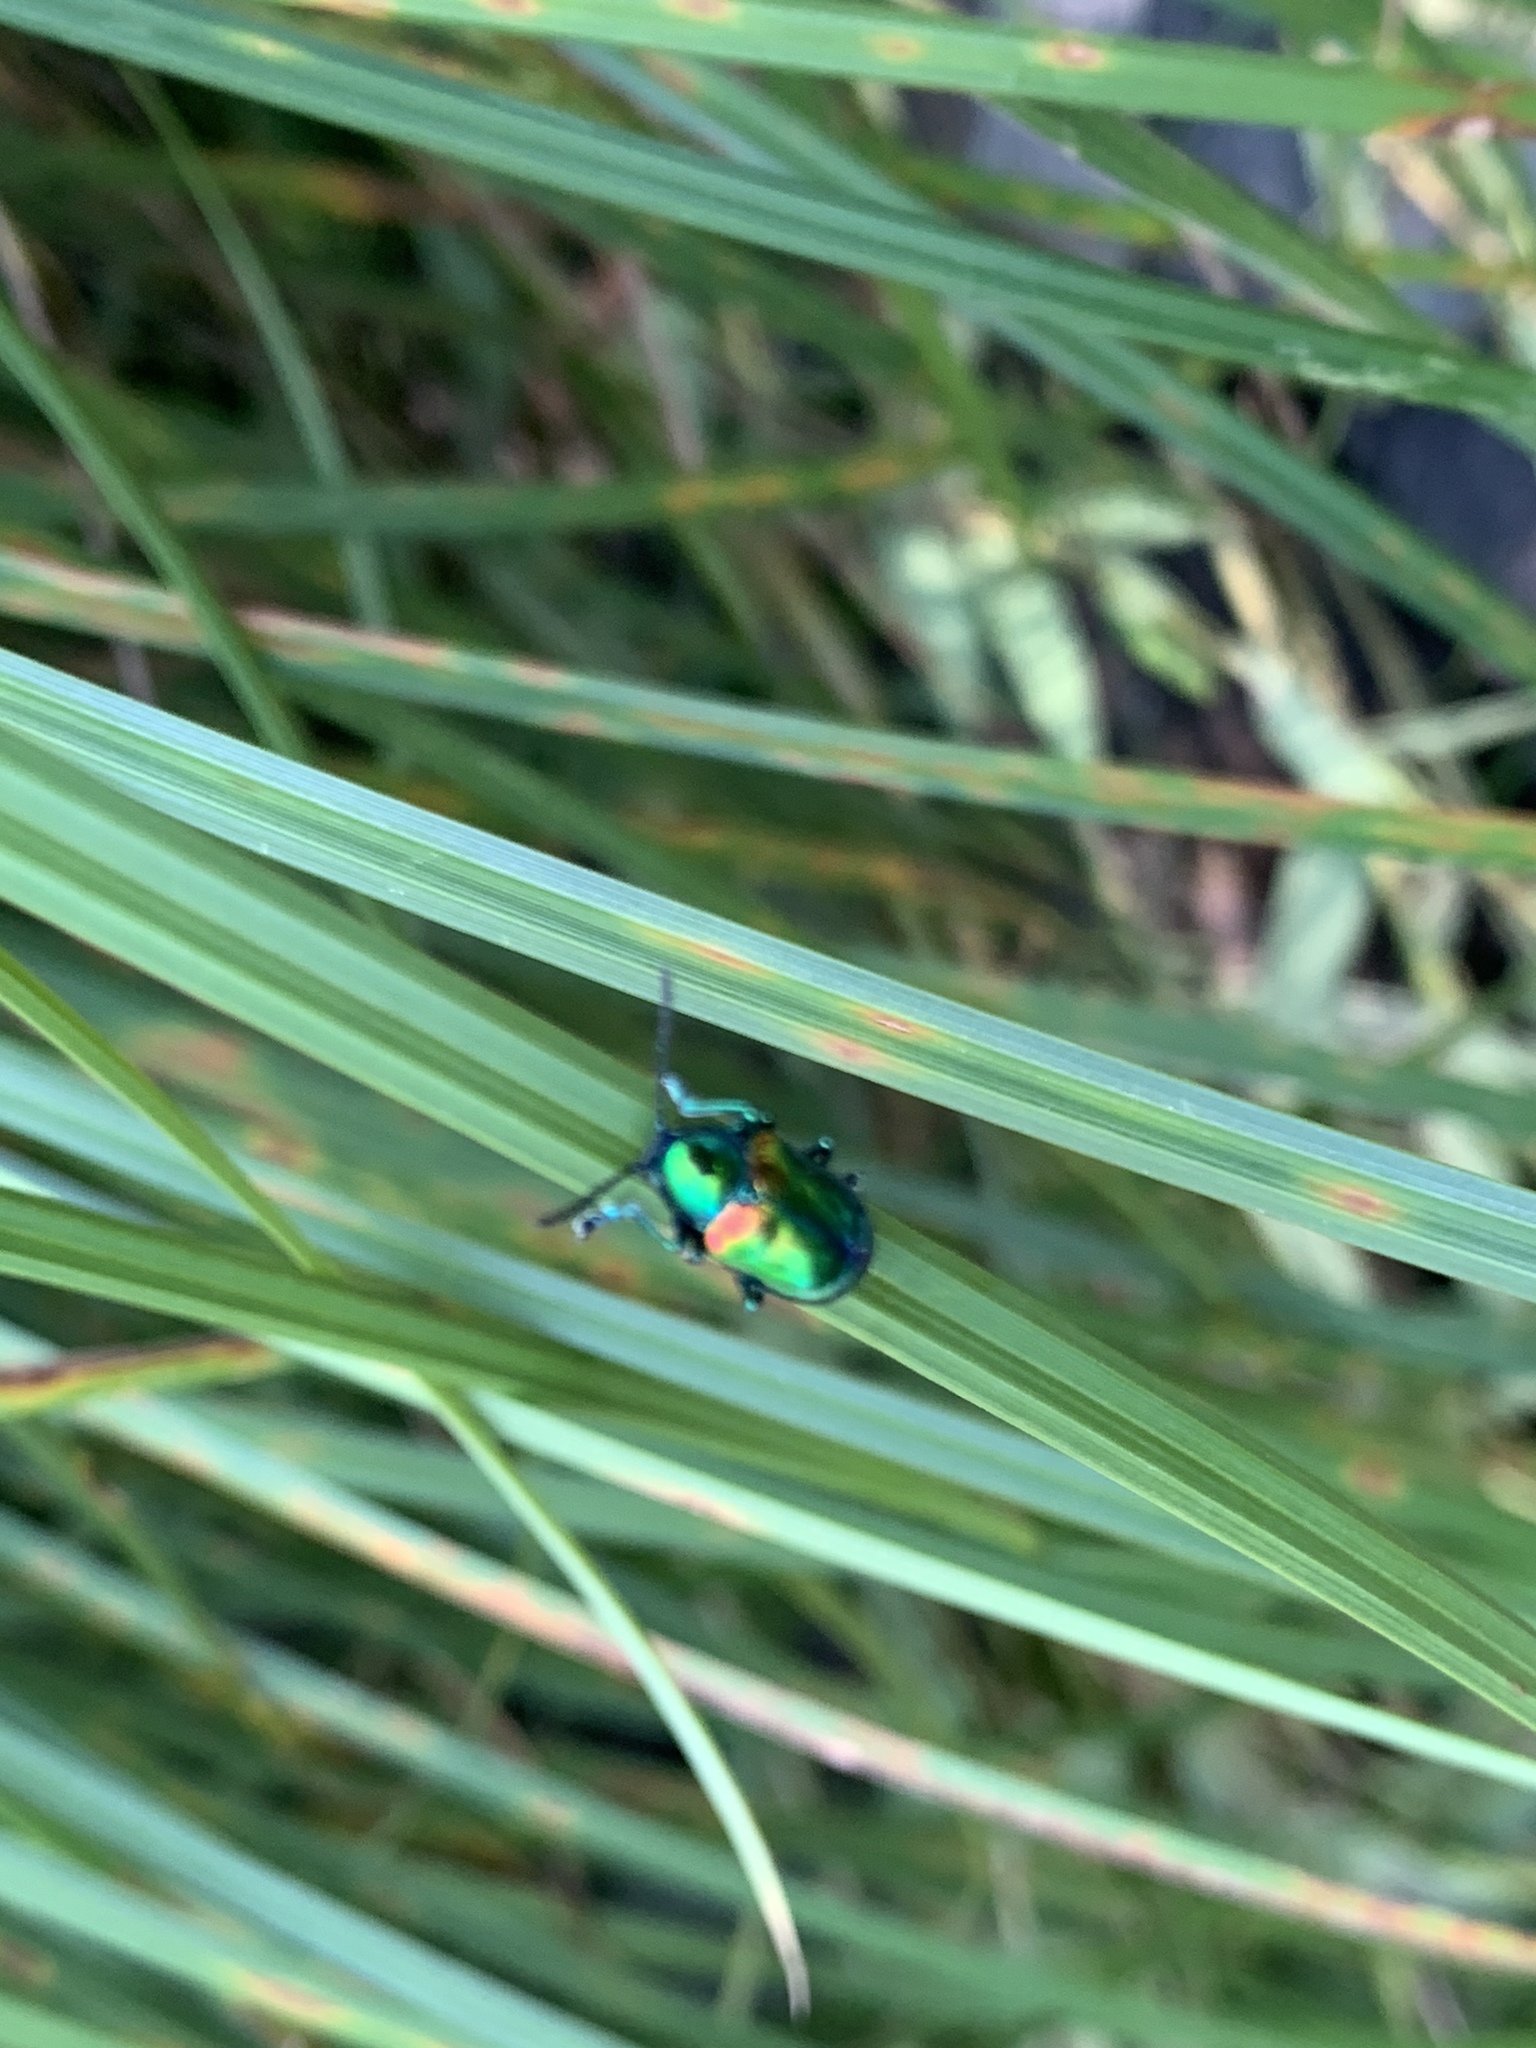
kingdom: Animalia
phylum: Arthropoda
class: Insecta
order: Coleoptera
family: Chrysomelidae
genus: Chrysochus
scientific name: Chrysochus auratus
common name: Dogbane leaf beetle
